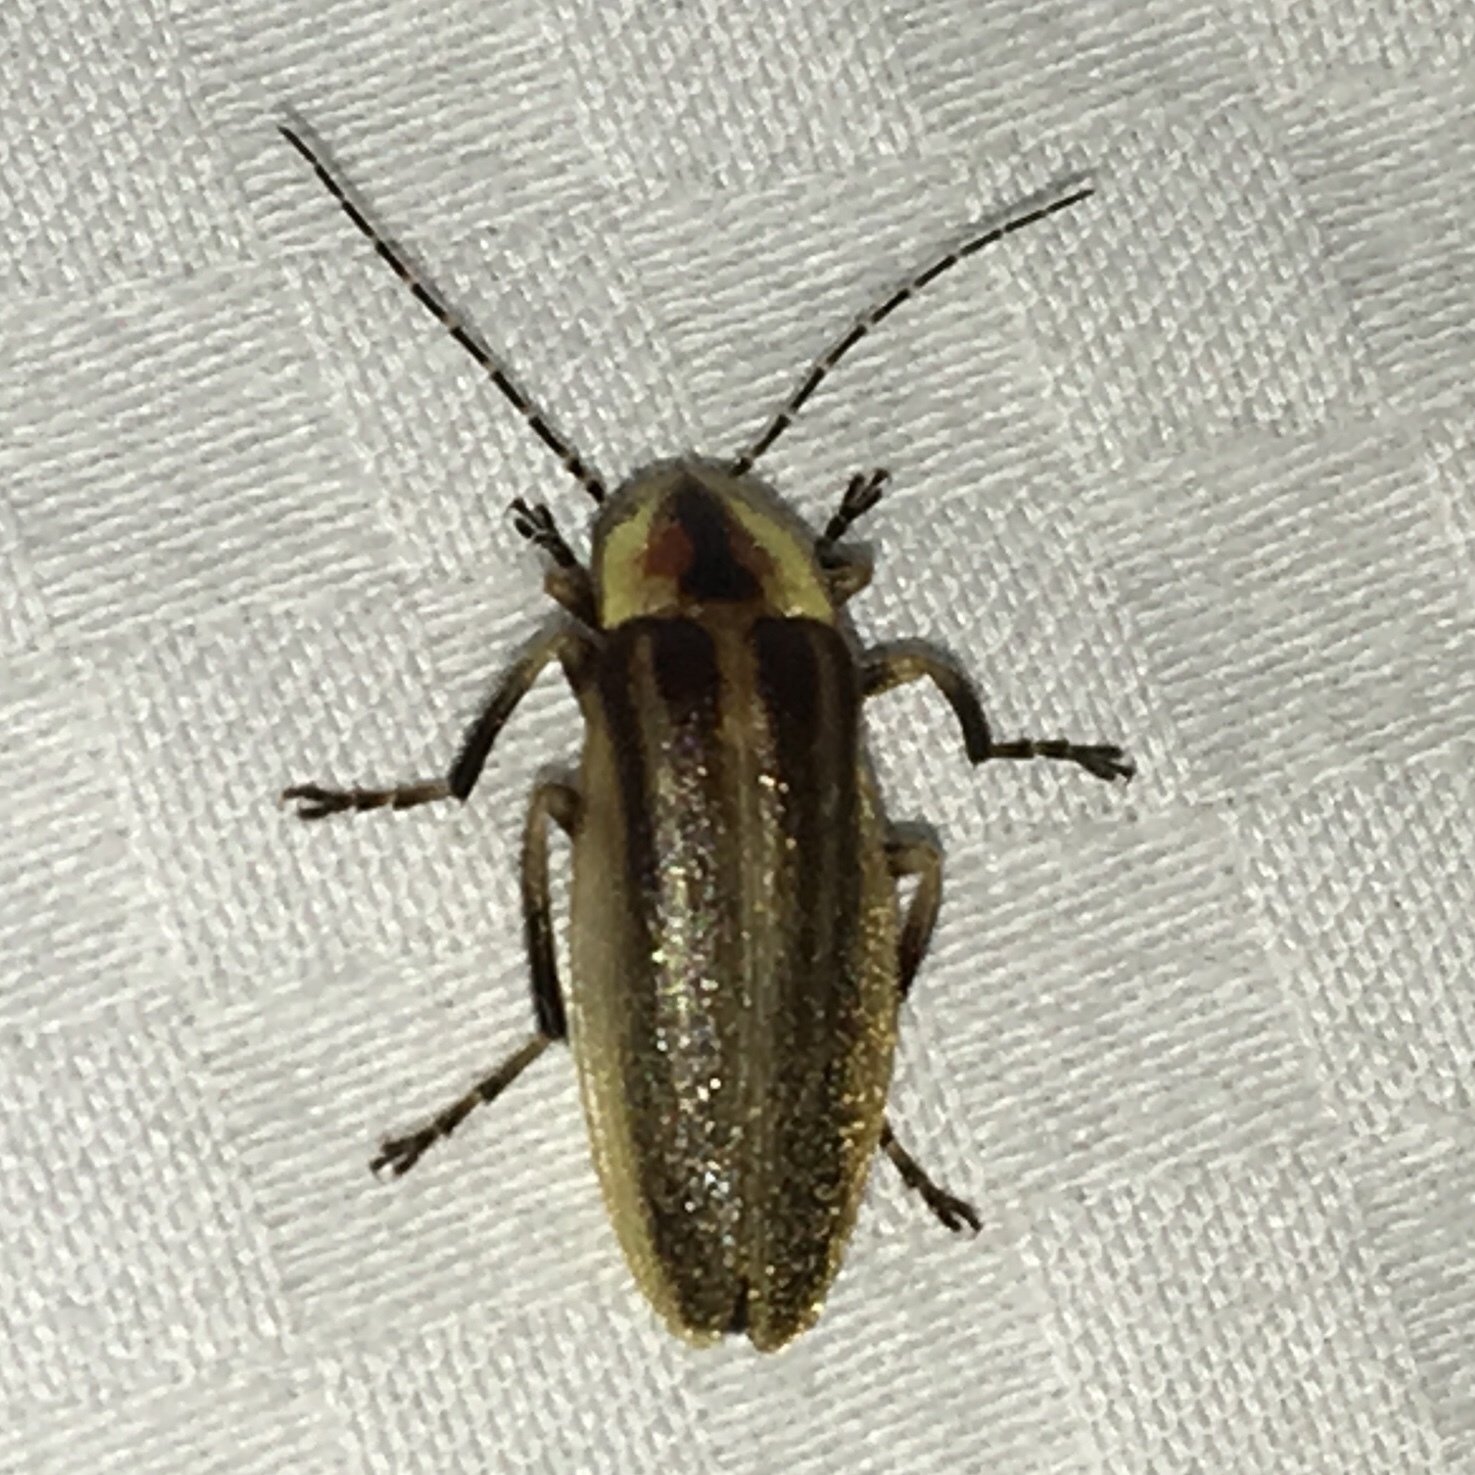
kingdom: Animalia
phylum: Arthropoda
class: Insecta
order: Coleoptera
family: Lampyridae
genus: Photuris
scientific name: Photuris
